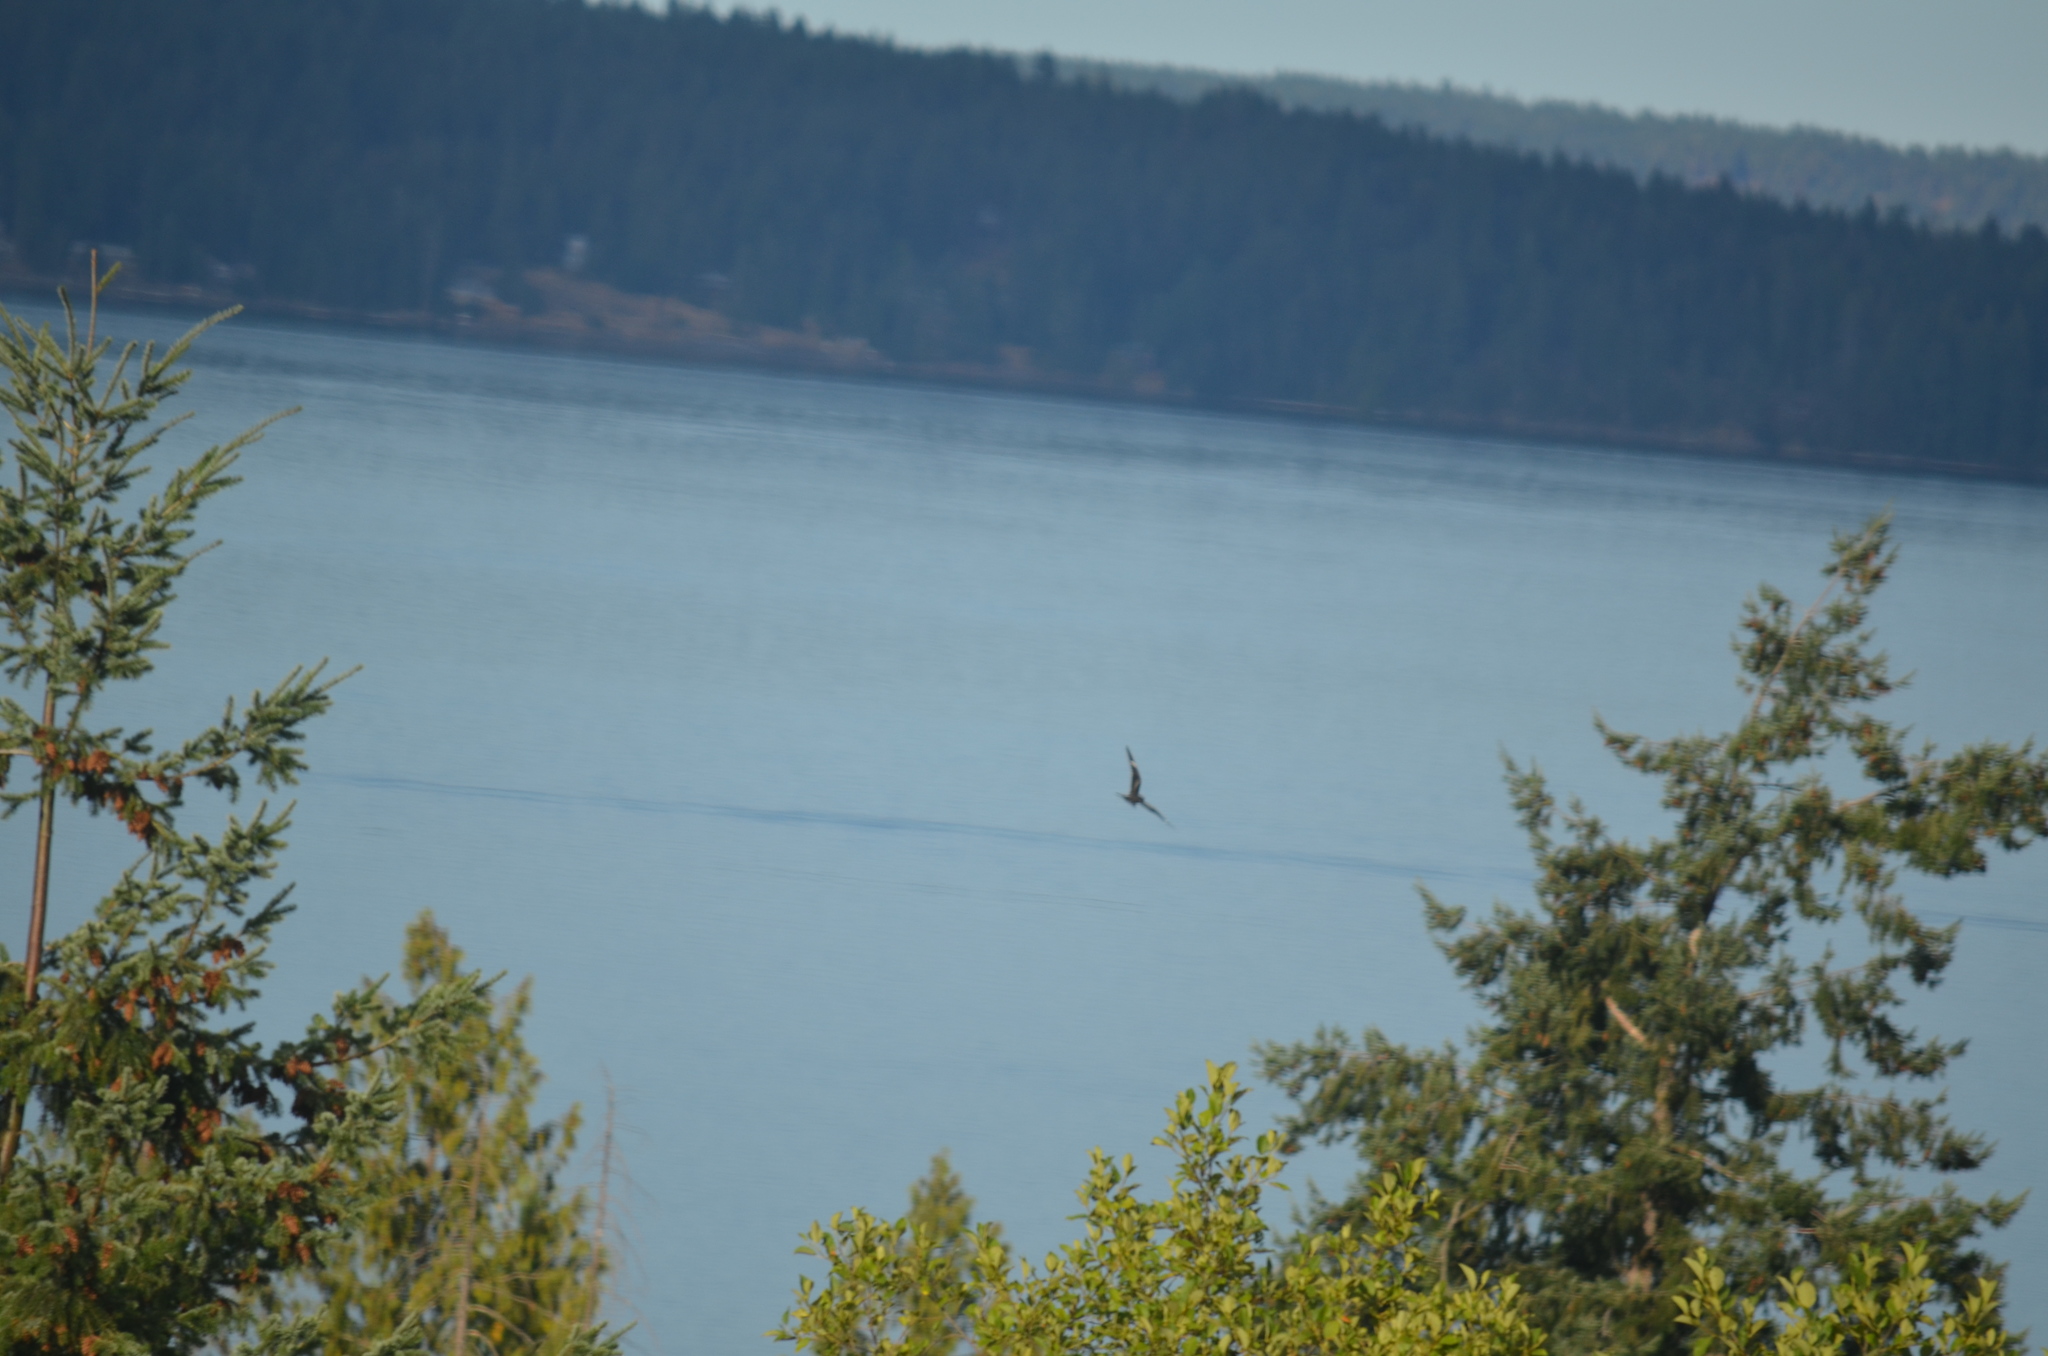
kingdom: Animalia
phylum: Chordata
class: Aves
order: Caprimulgiformes
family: Caprimulgidae
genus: Chordeiles
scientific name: Chordeiles minor
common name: Common nighthawk
